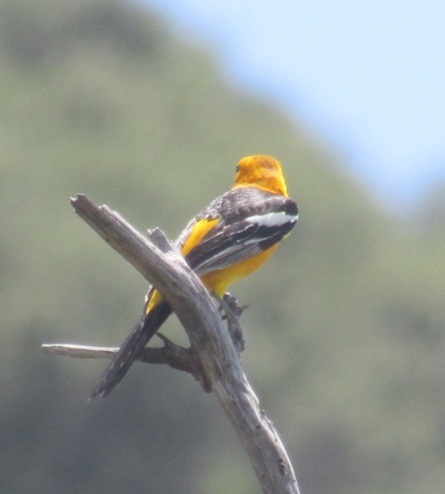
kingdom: Animalia
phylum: Chordata
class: Aves
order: Passeriformes
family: Icteridae
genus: Icterus
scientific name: Icterus cucullatus
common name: Hooded oriole
